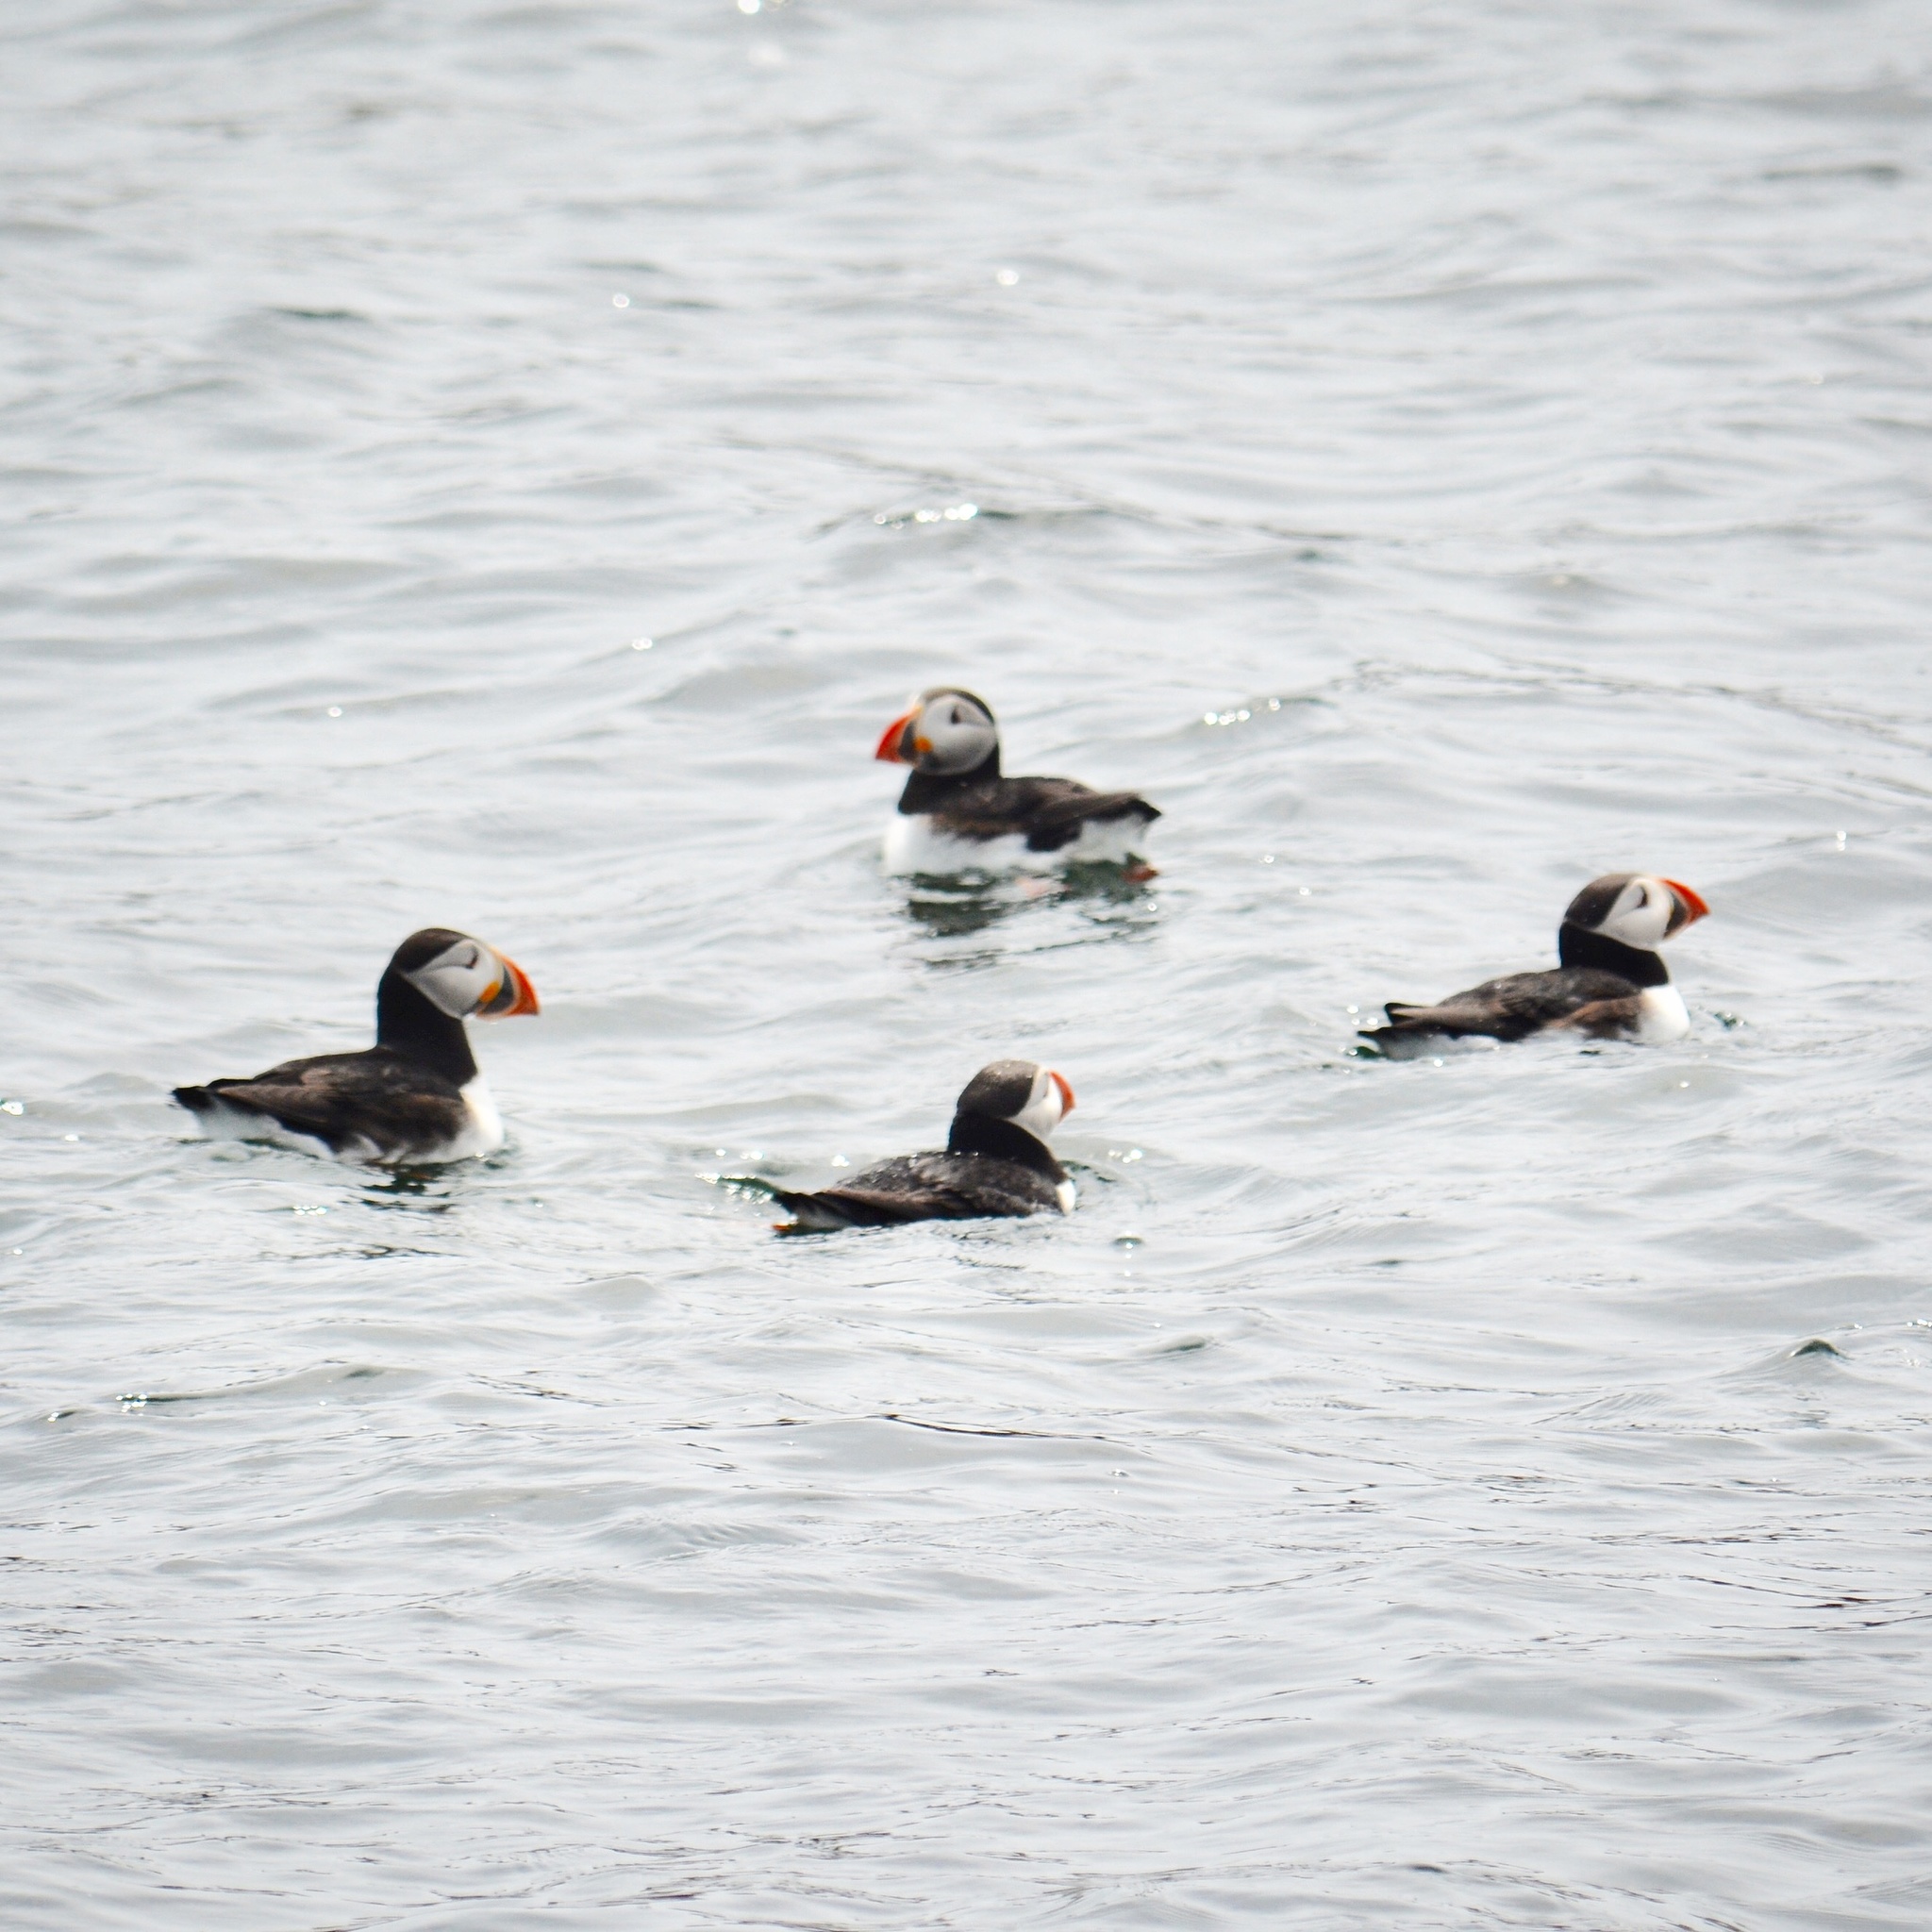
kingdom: Animalia
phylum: Chordata
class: Aves
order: Charadriiformes
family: Alcidae
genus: Fratercula
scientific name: Fratercula arctica
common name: Atlantic puffin
